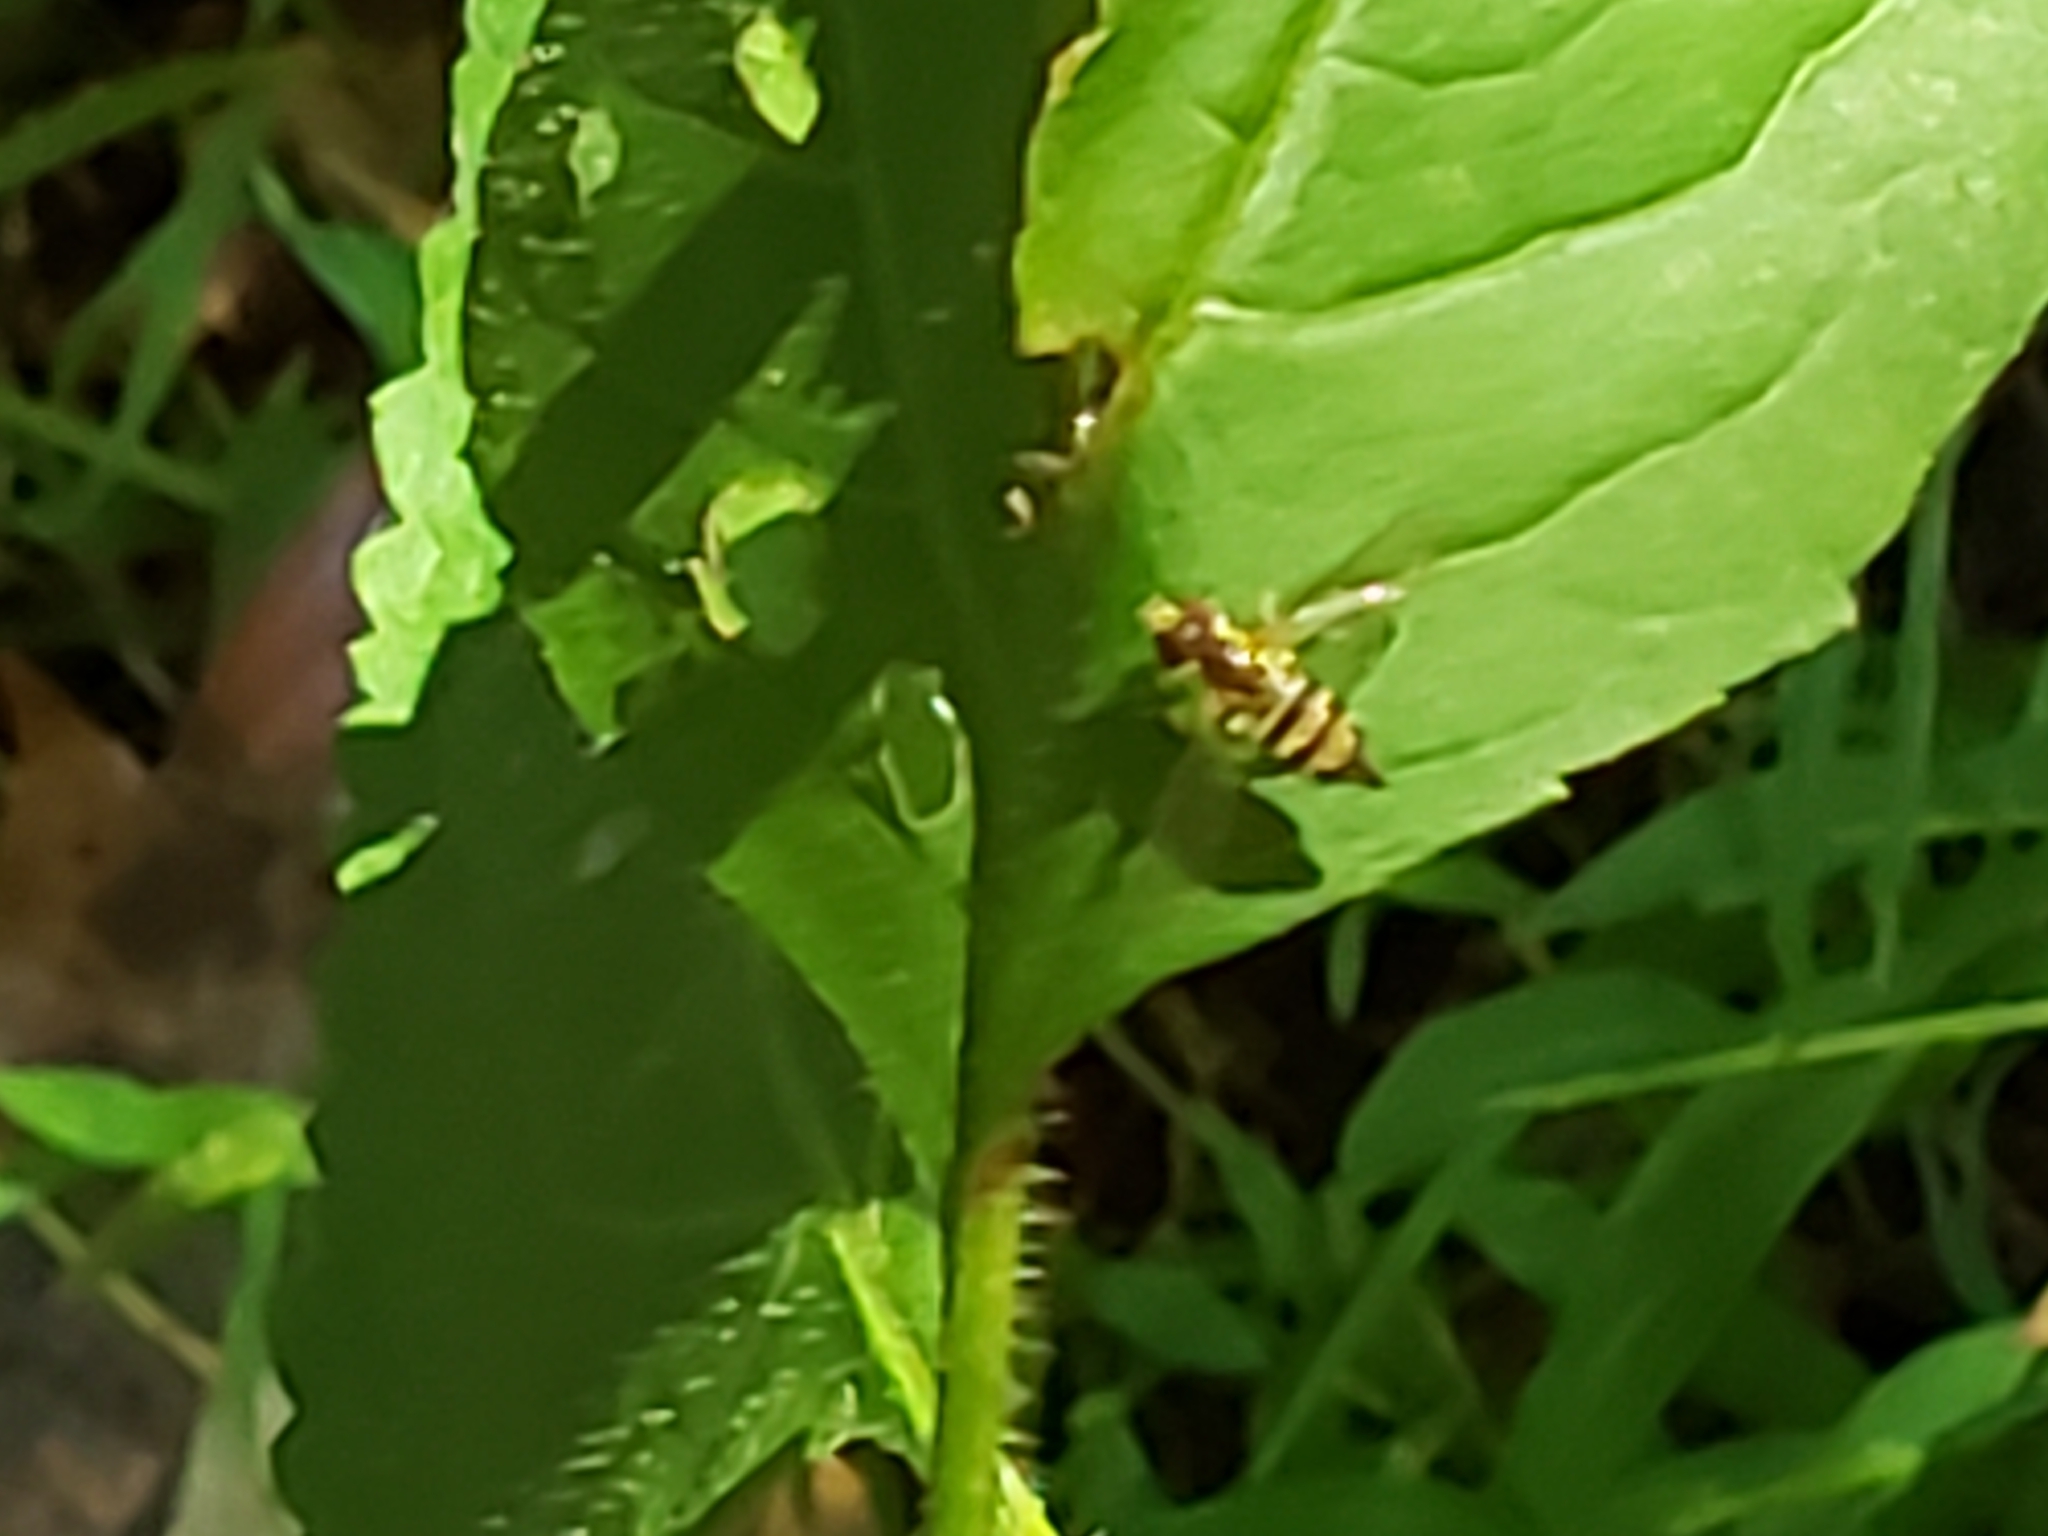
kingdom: Animalia
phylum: Arthropoda
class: Insecta
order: Diptera
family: Syrphidae
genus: Toxomerus
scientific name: Toxomerus geminatus
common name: Eastern calligrapher
